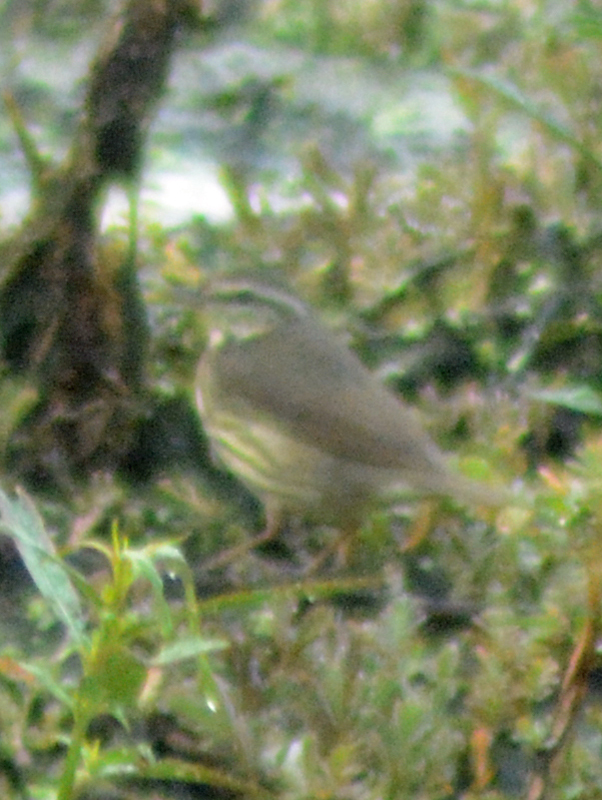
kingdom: Animalia
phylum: Chordata
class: Aves
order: Passeriformes
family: Parulidae
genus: Parkesia
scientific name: Parkesia noveboracensis
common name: Northern waterthrush
